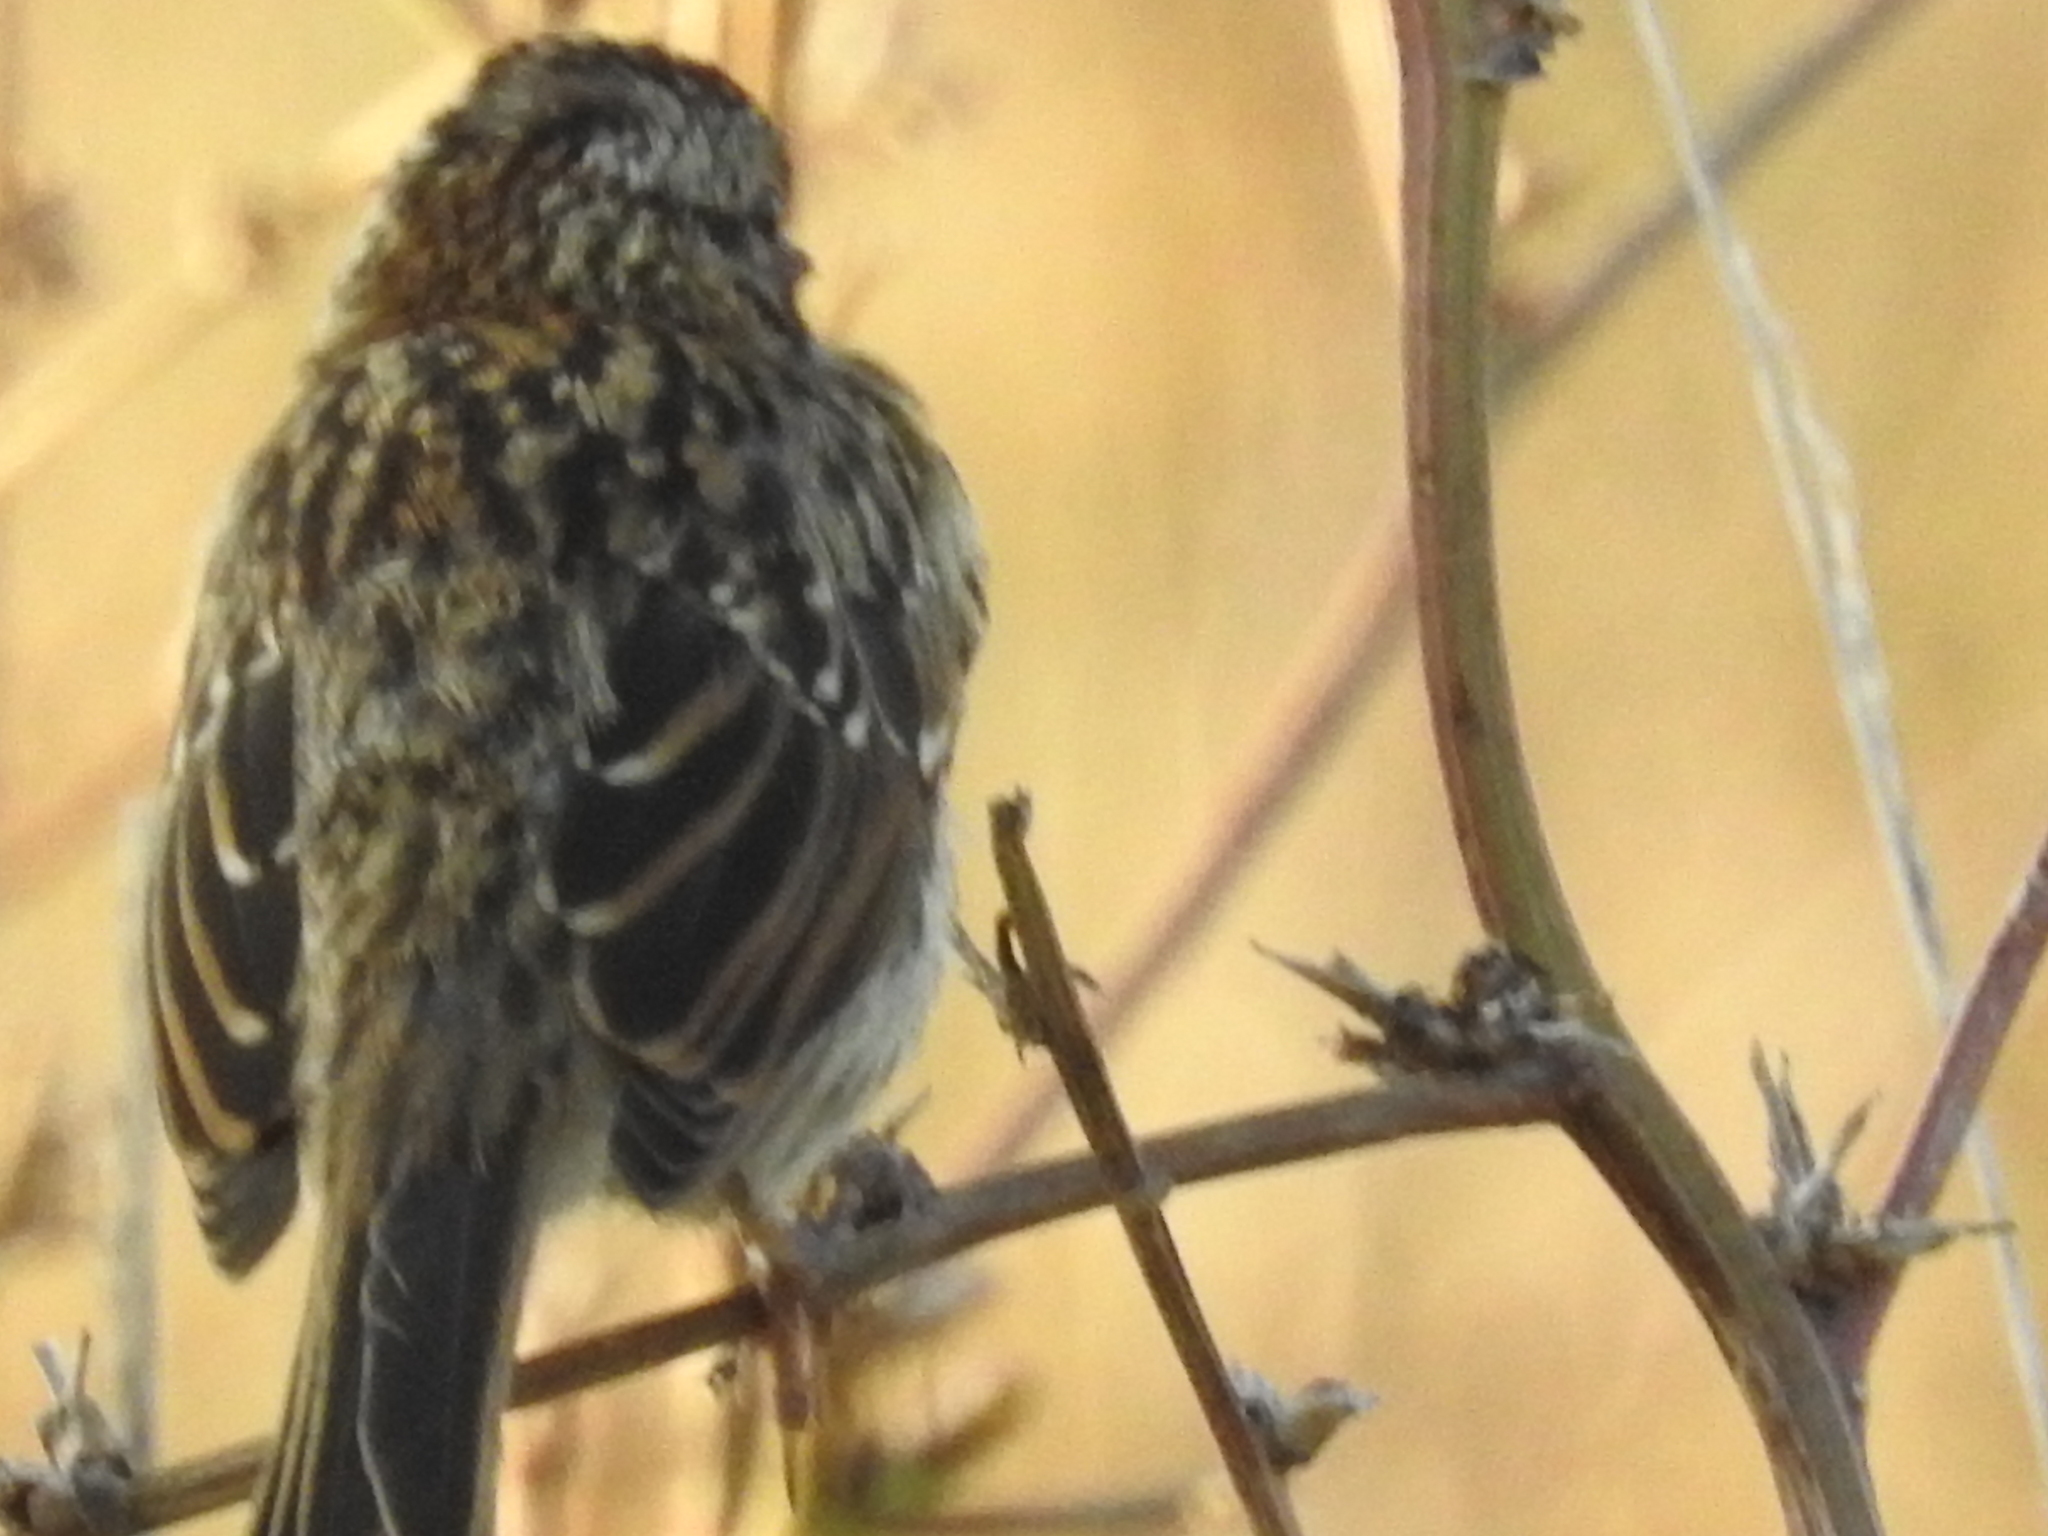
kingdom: Animalia
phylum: Chordata
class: Aves
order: Passeriformes
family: Passerellidae
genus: Zonotrichia
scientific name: Zonotrichia capensis
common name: Rufous-collared sparrow
